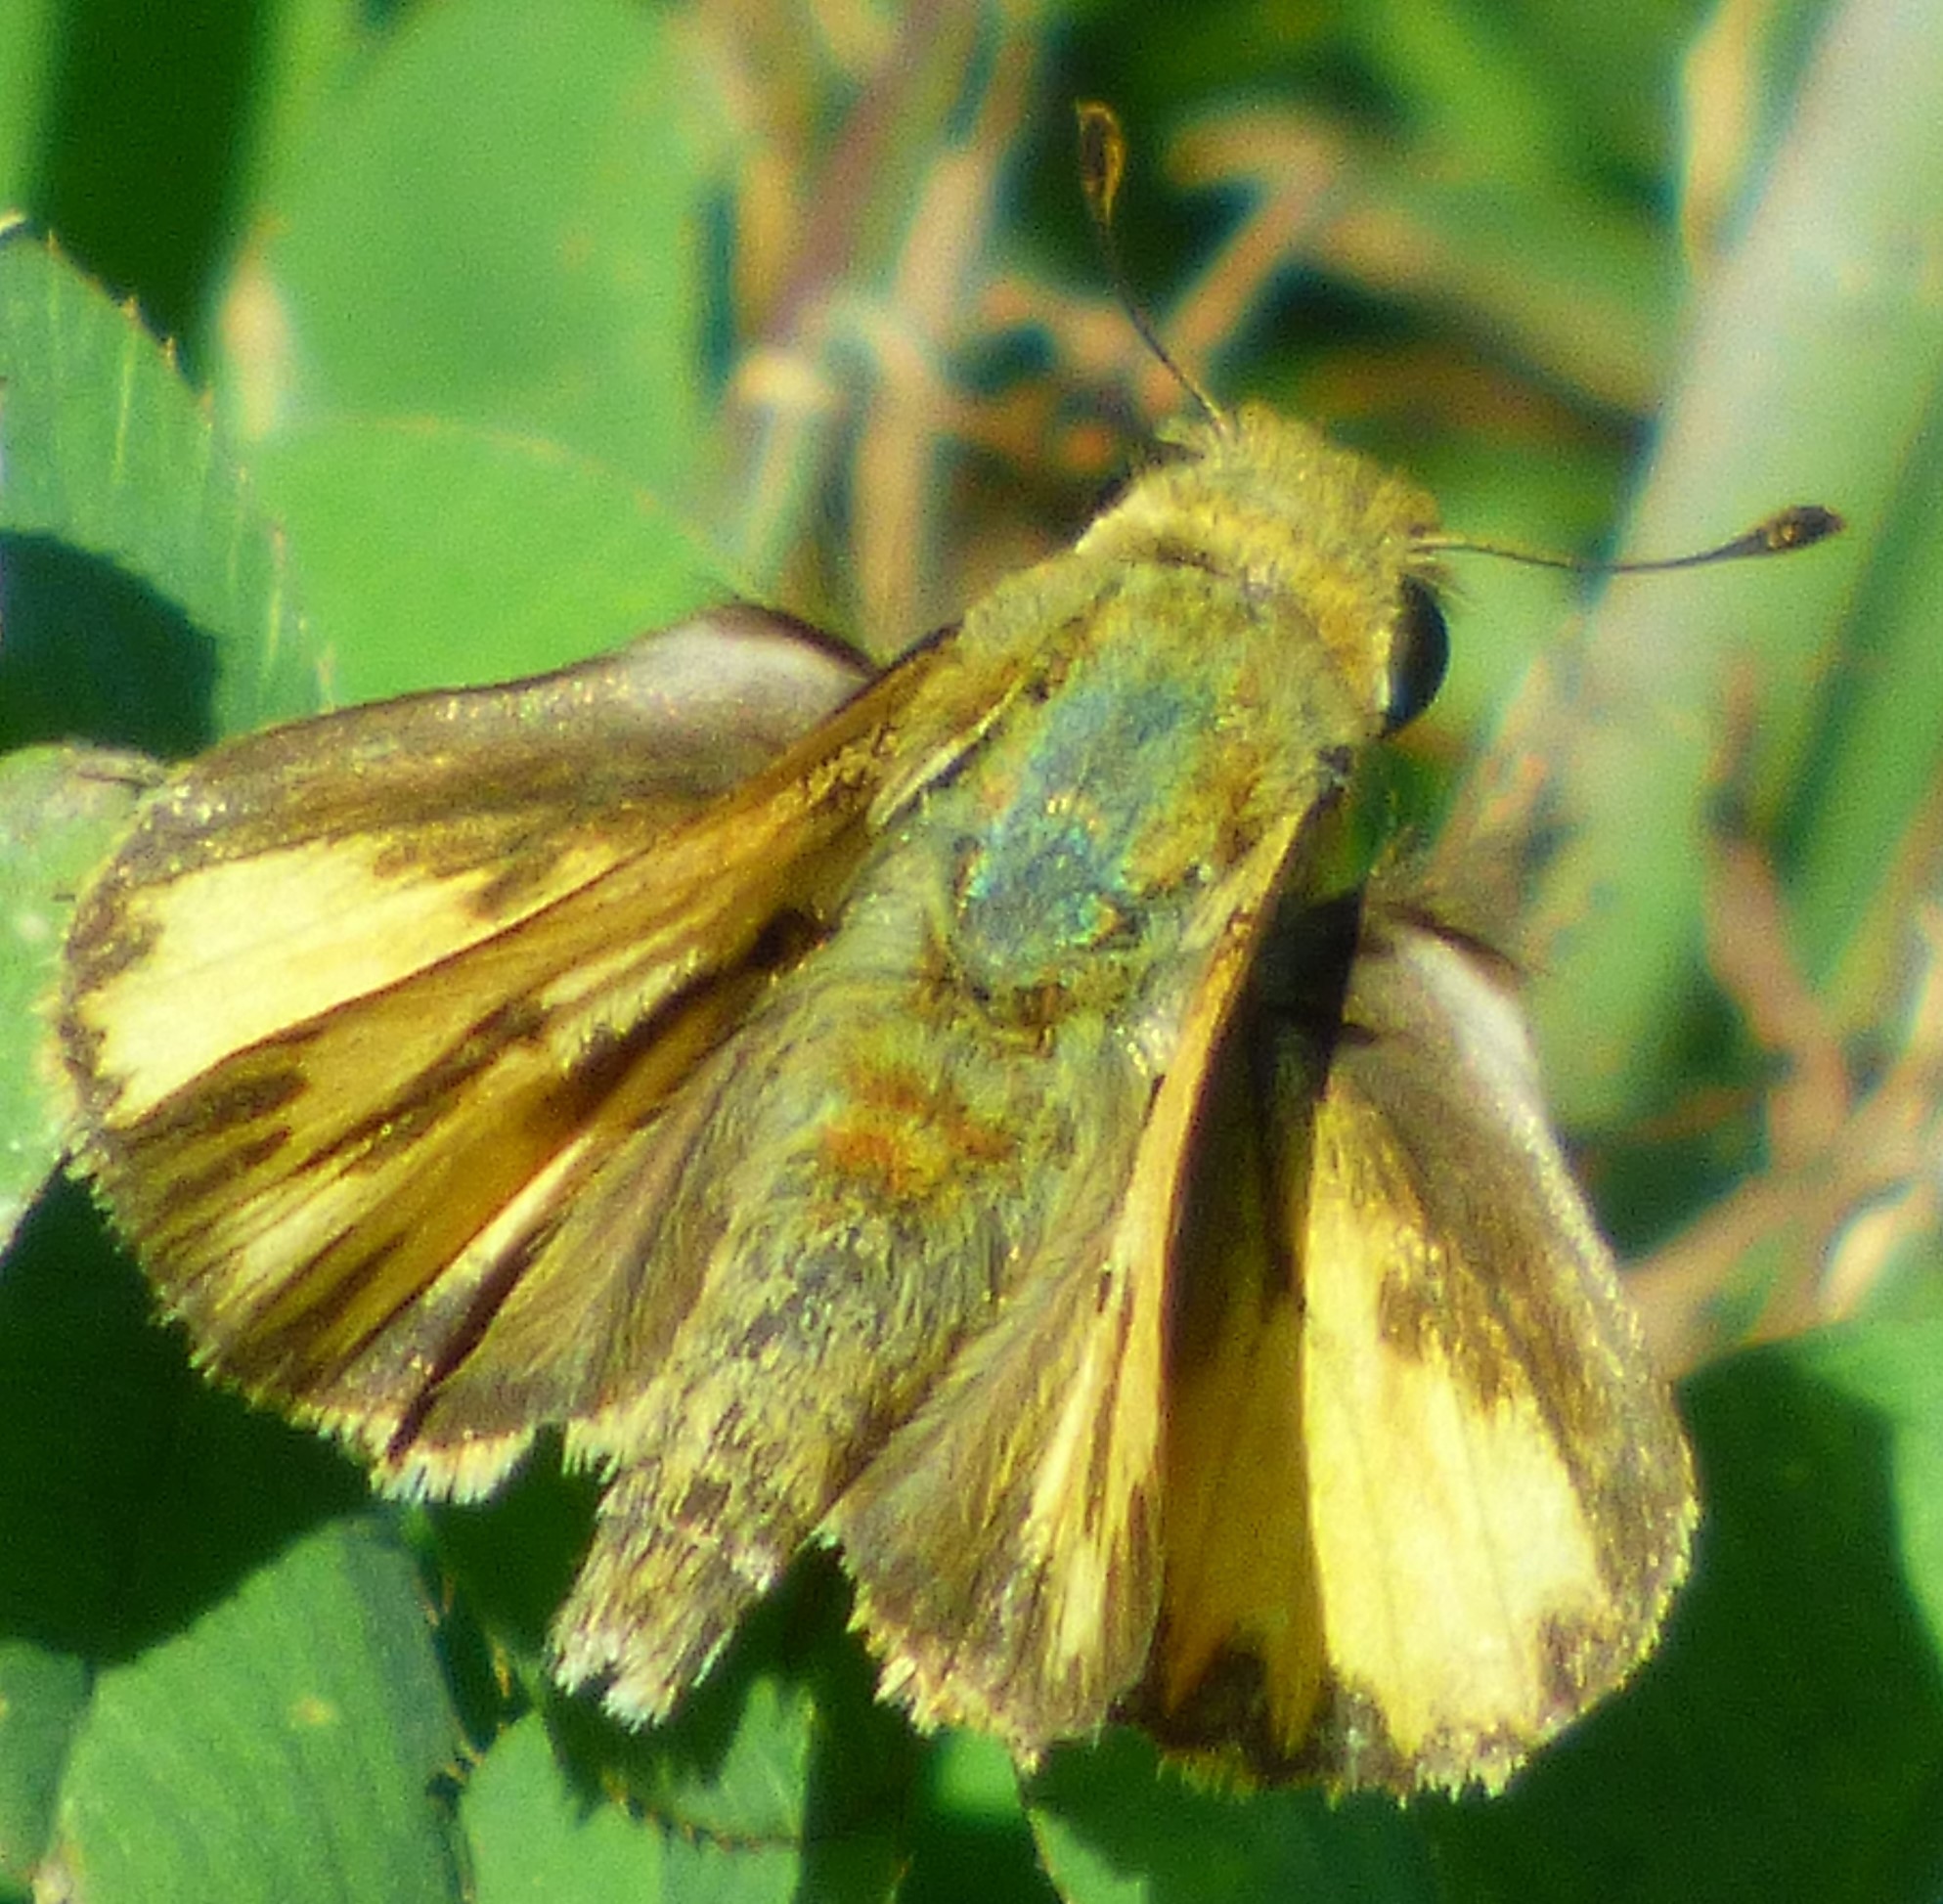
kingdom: Animalia
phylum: Arthropoda
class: Insecta
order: Lepidoptera
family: Hesperiidae
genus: Hylephila
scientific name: Hylephila phyleus
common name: Fiery skipper
